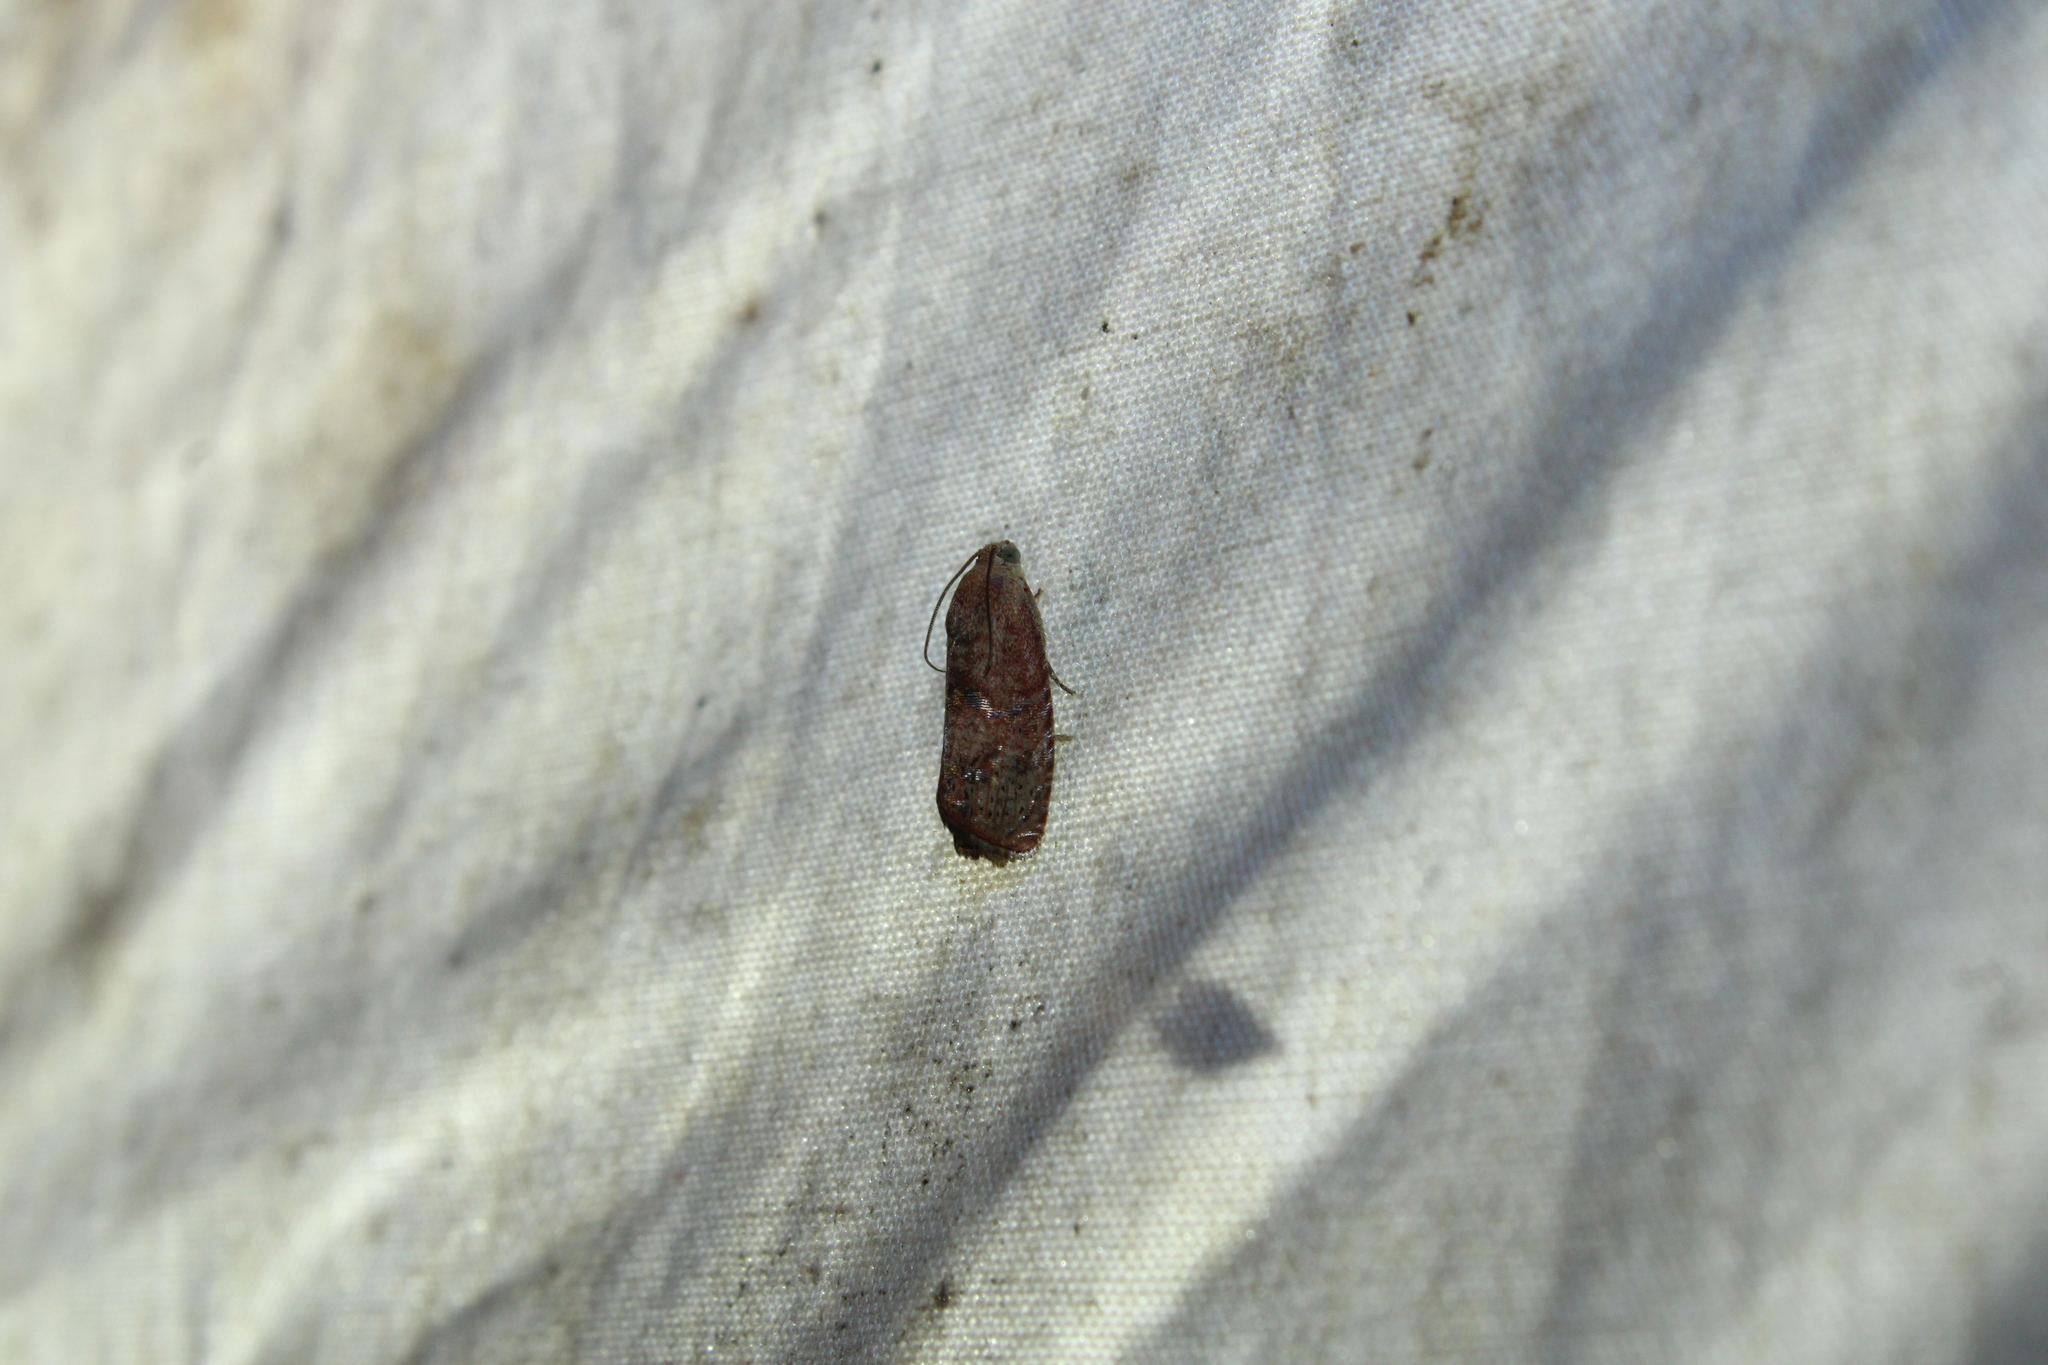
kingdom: Animalia
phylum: Arthropoda
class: Insecta
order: Lepidoptera
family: Tortricidae
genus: Cydia
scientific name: Cydia latiferreana
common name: Filbertworm moth
